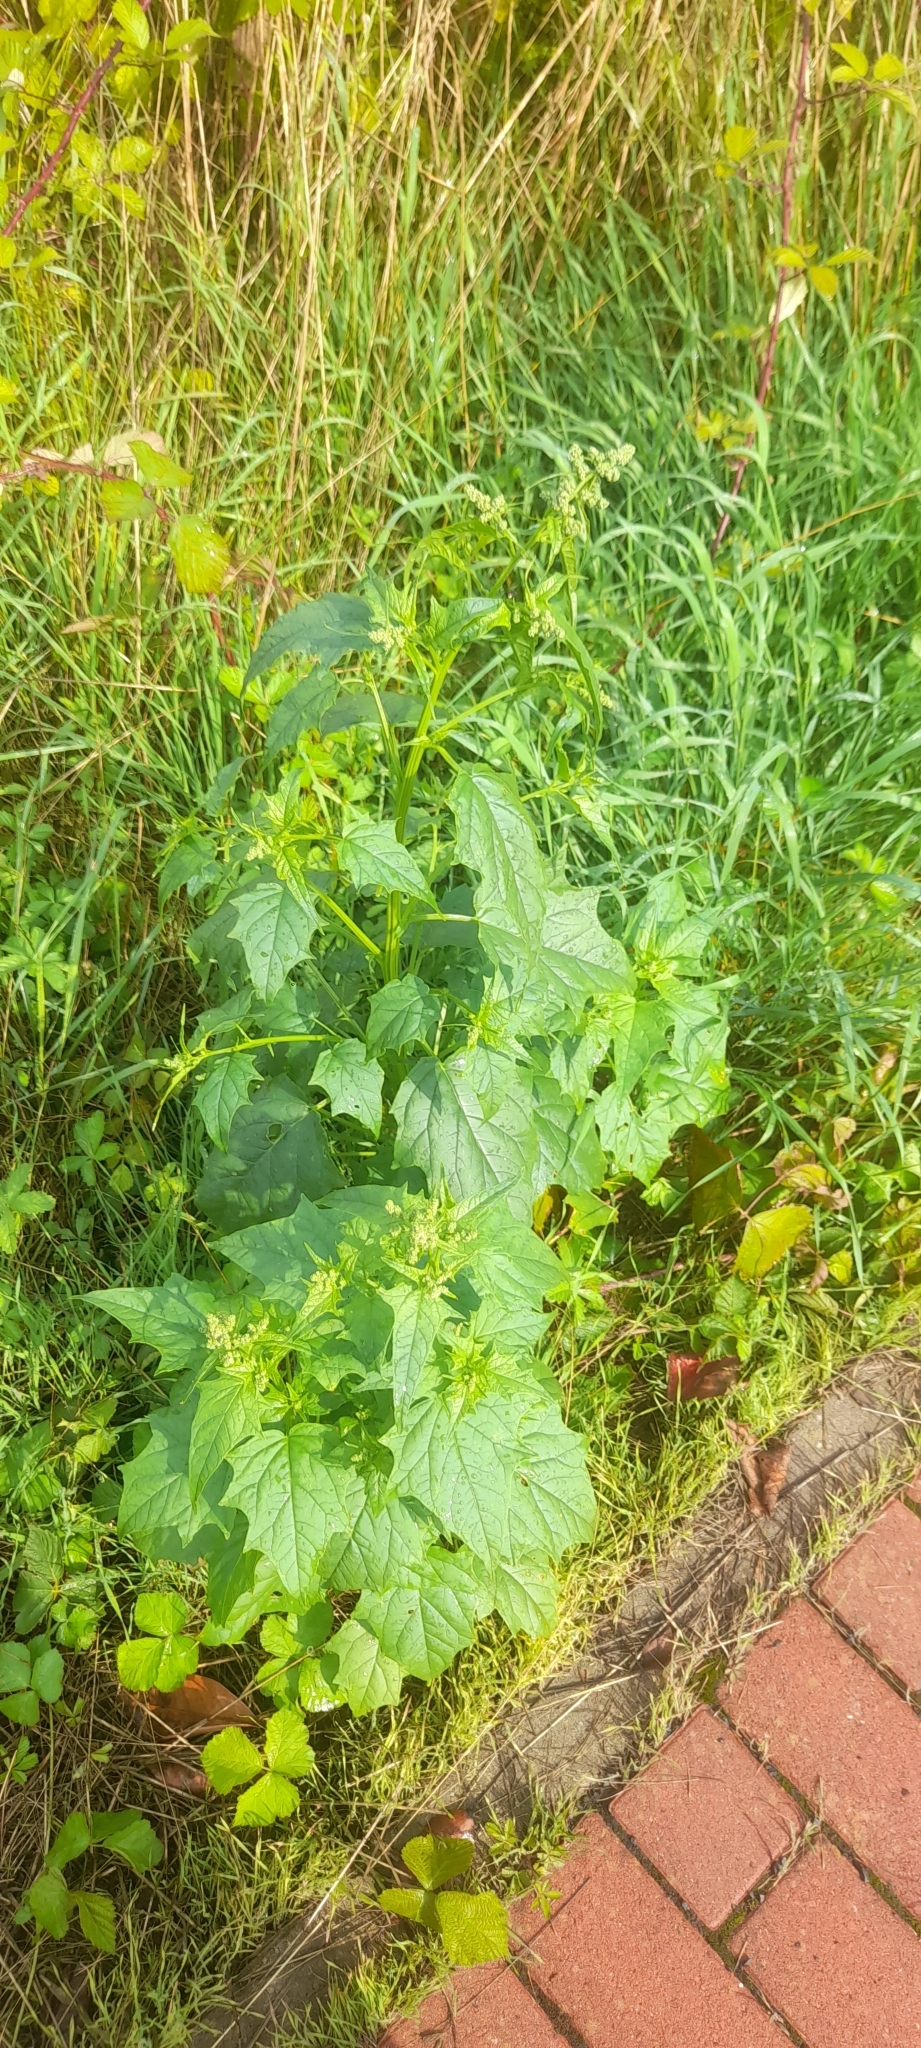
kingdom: Plantae
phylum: Tracheophyta
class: Magnoliopsida
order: Caryophyllales
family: Amaranthaceae
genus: Chenopodiastrum
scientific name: Chenopodiastrum hybridum
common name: Mapleleaf goosefoot
